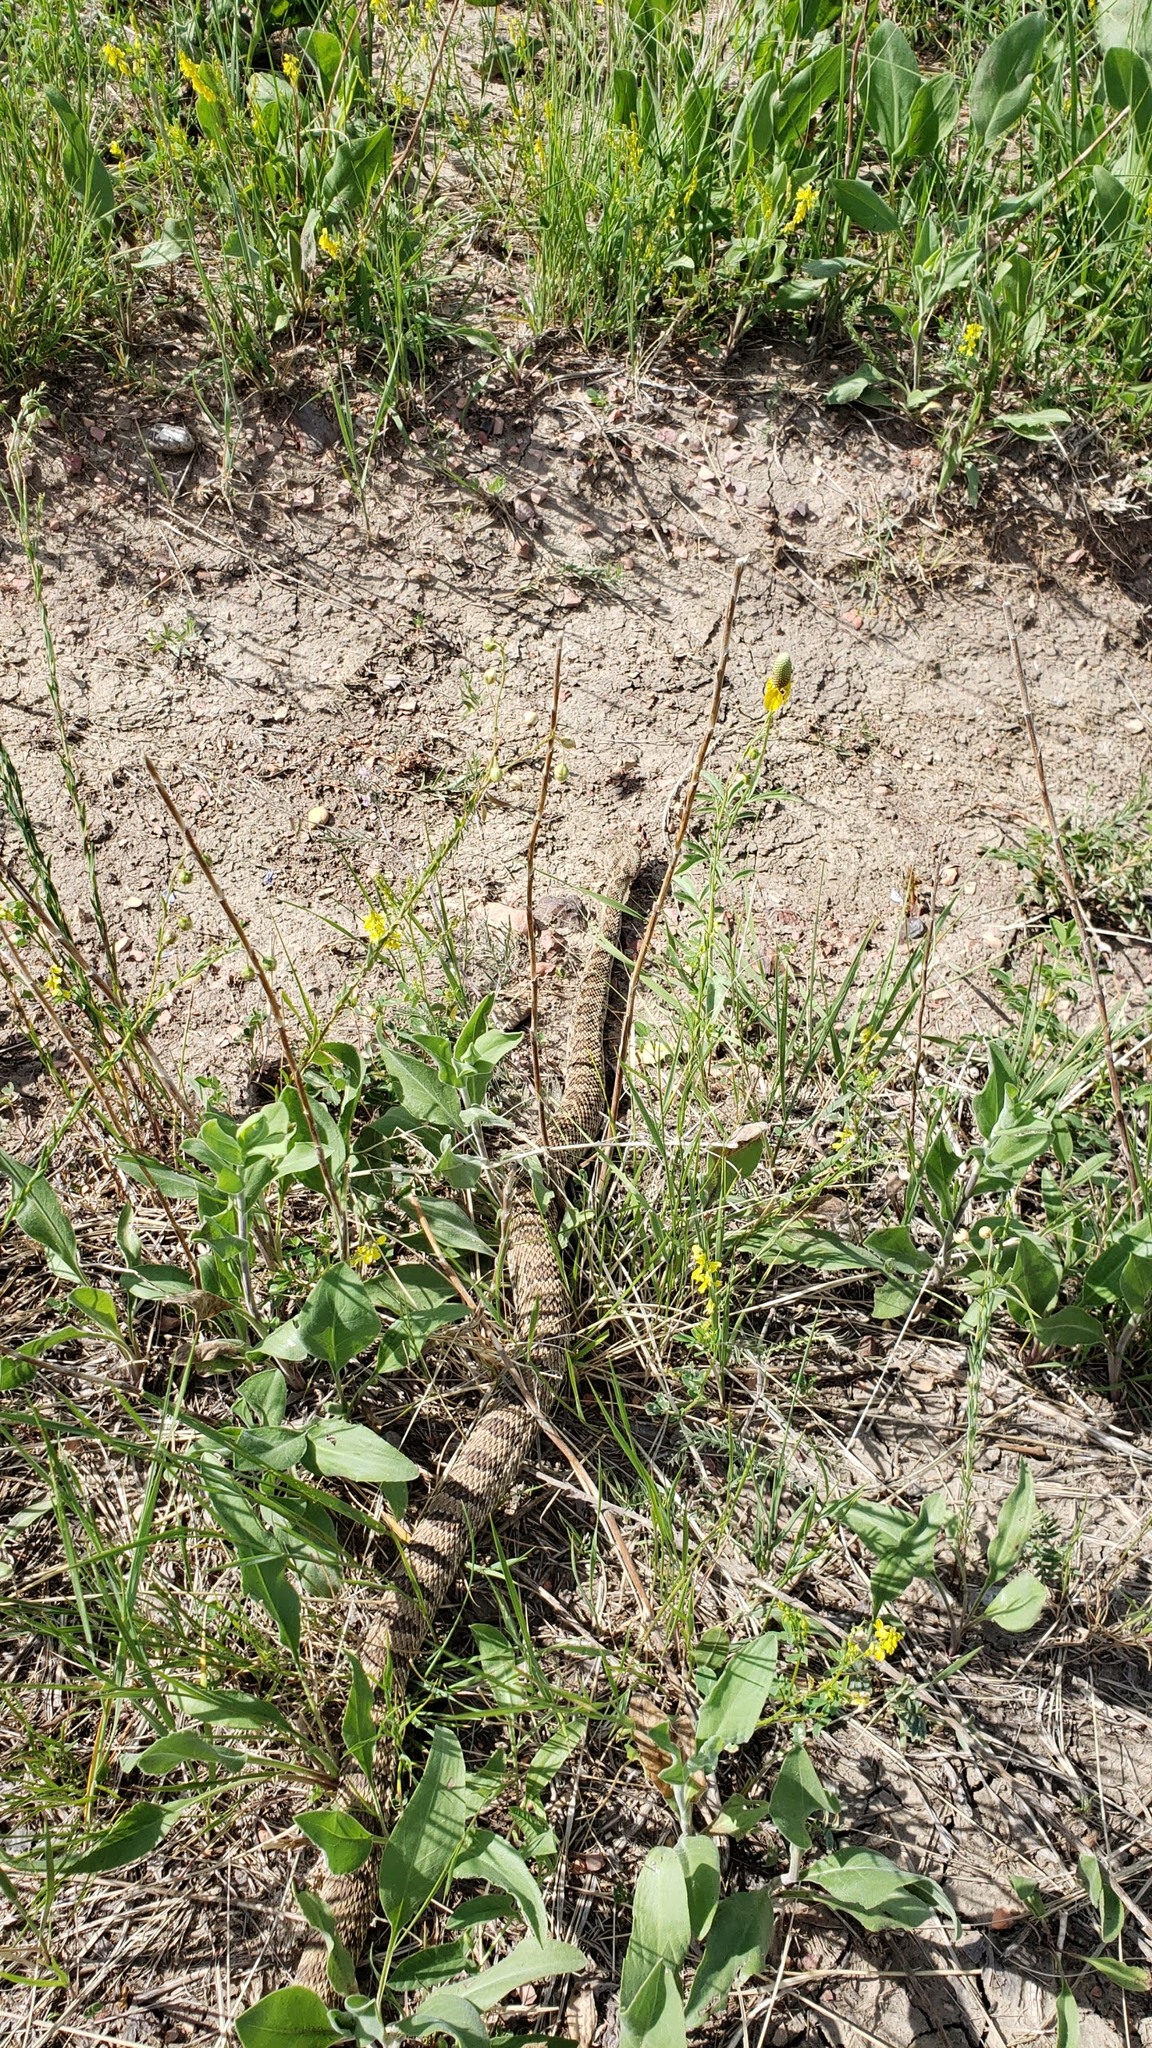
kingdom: Animalia
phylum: Chordata
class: Squamata
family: Viperidae
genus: Crotalus
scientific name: Crotalus viridis
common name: Prairie rattlesnake
